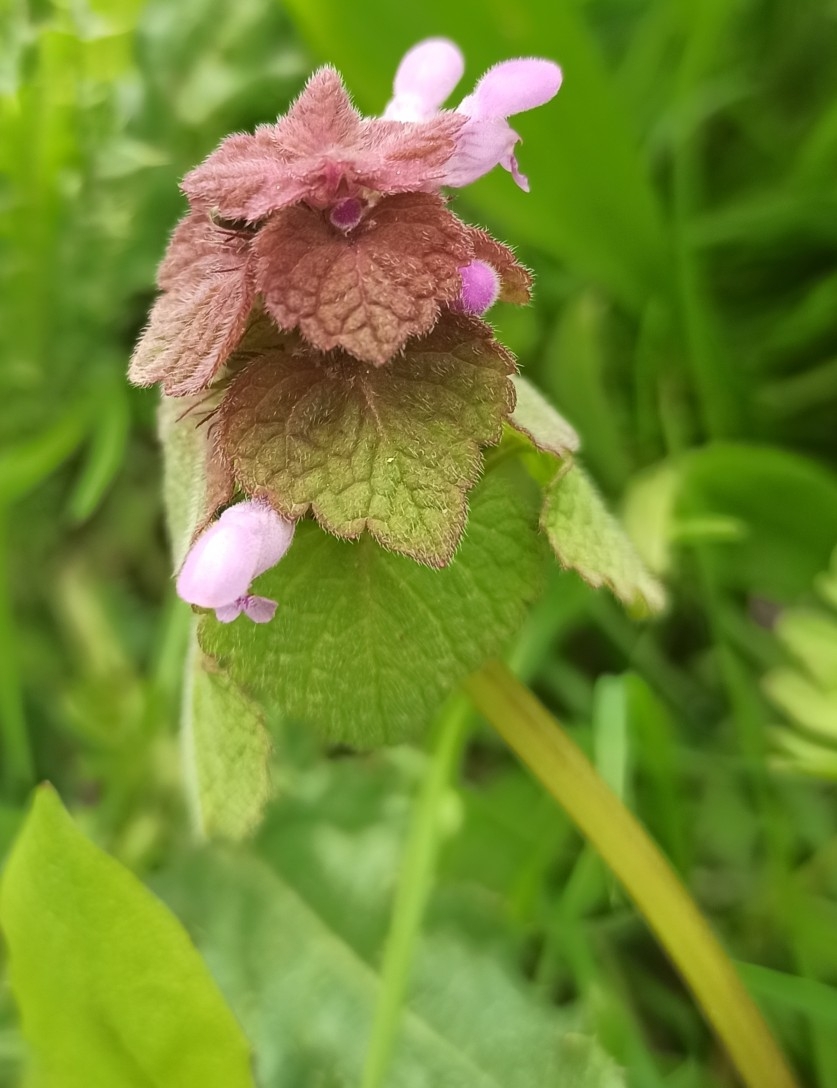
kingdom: Plantae
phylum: Tracheophyta
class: Magnoliopsida
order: Lamiales
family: Lamiaceae
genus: Lamium
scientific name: Lamium purpureum
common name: Red dead-nettle
